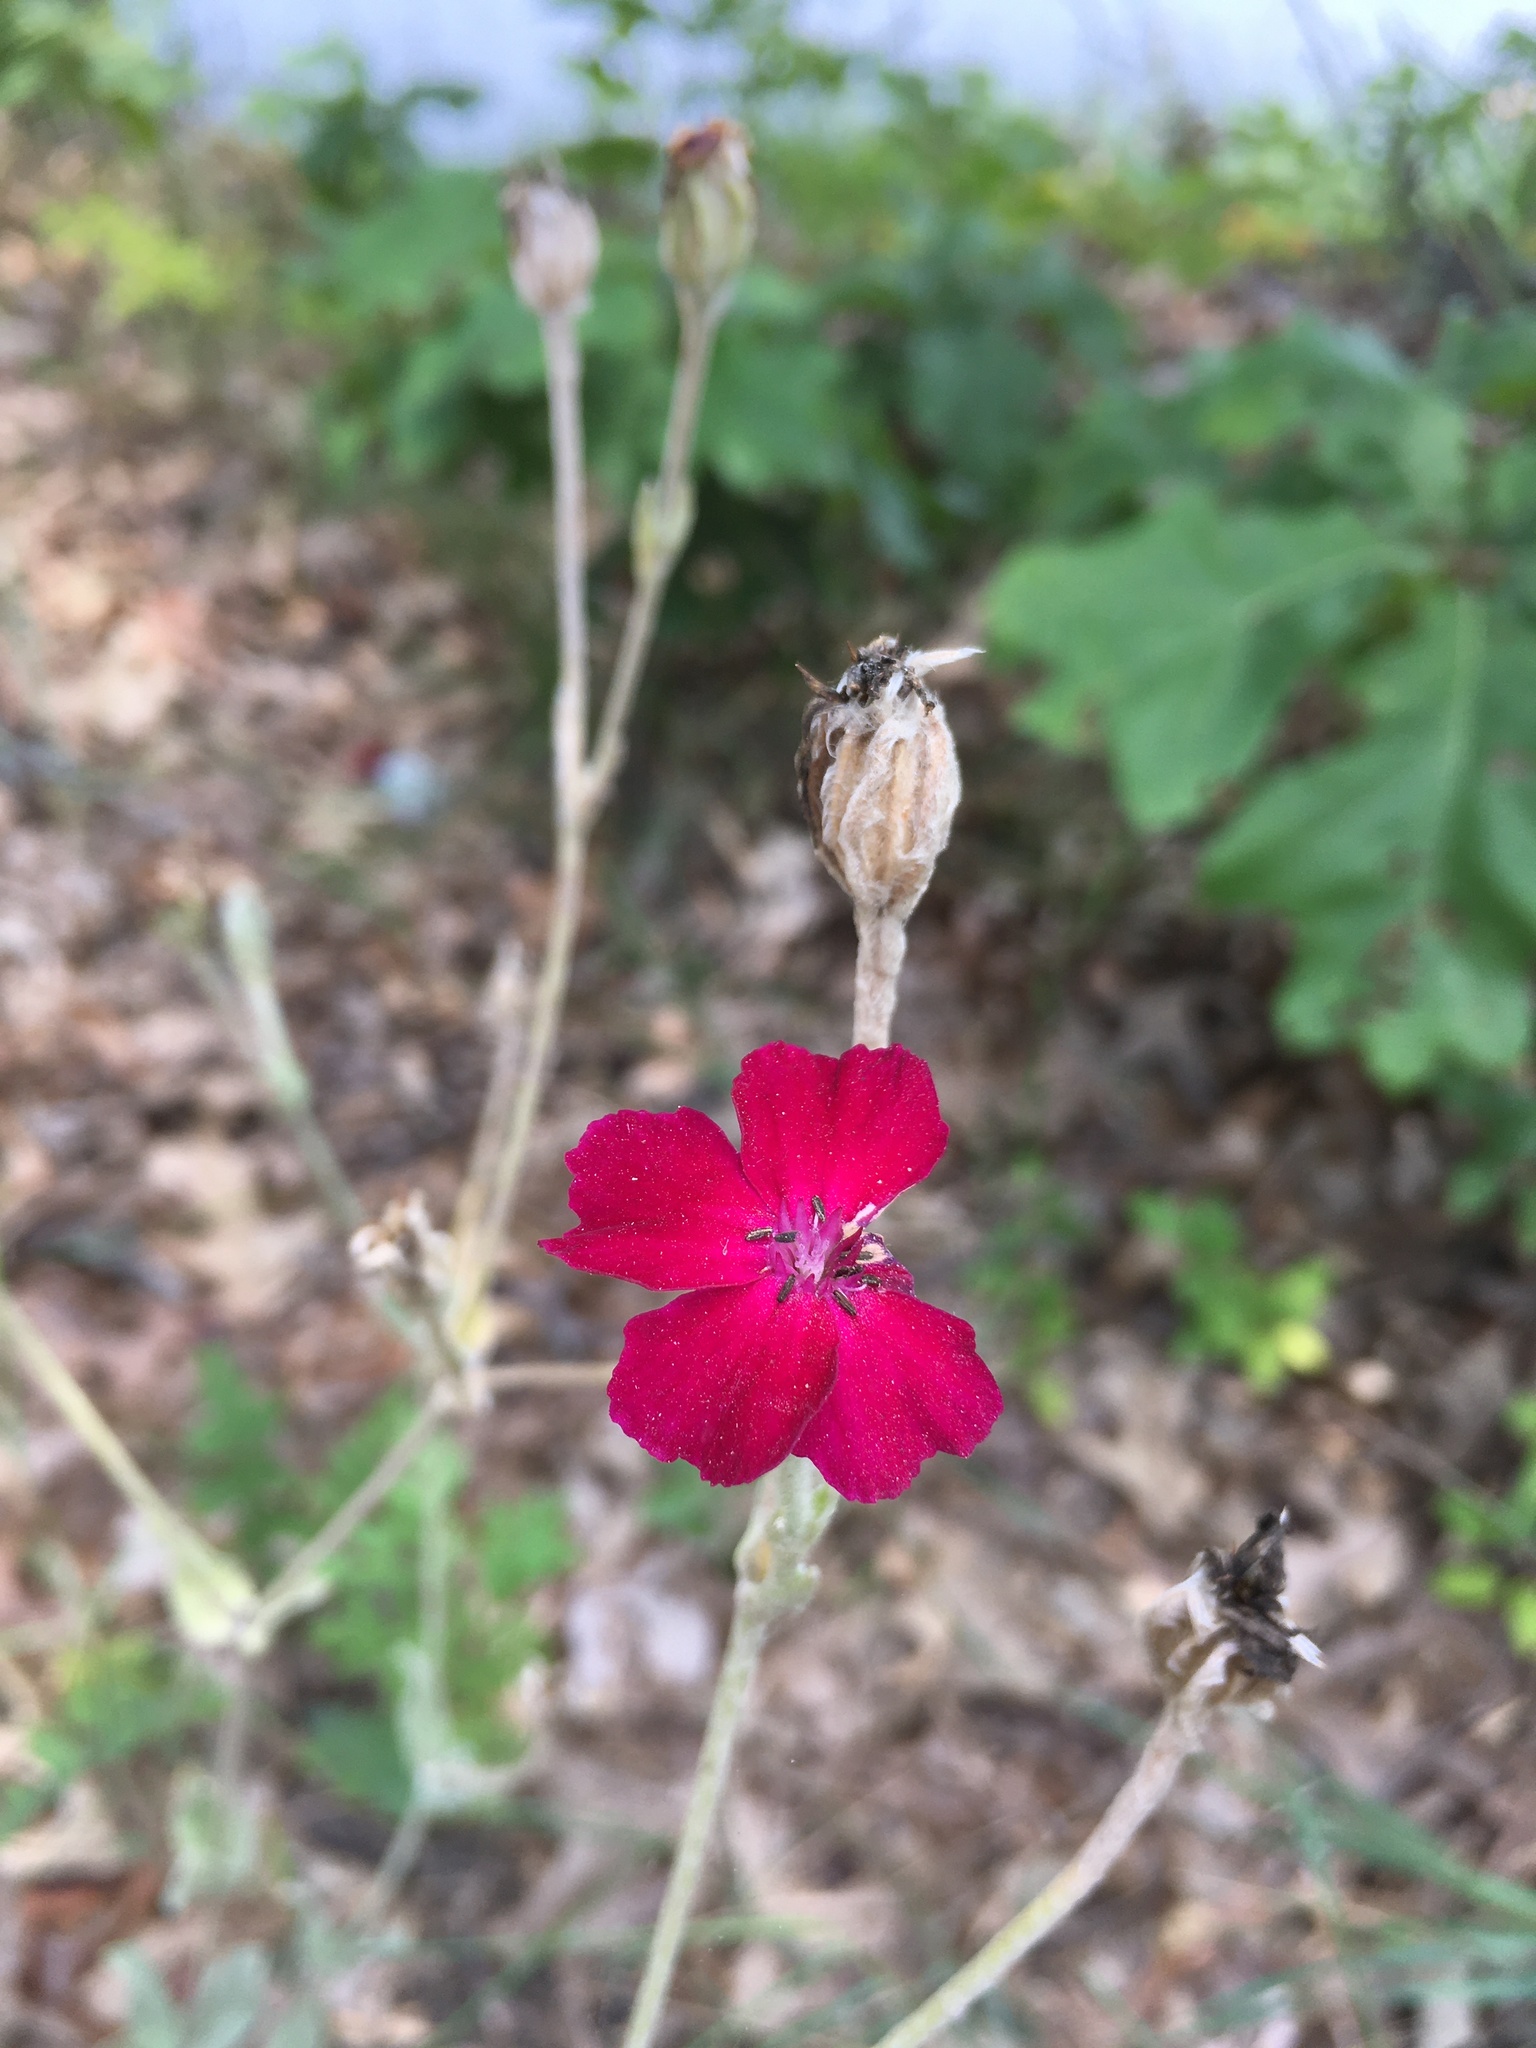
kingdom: Plantae
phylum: Tracheophyta
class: Magnoliopsida
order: Caryophyllales
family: Caryophyllaceae
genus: Silene
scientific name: Silene coronaria
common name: Rose campion
